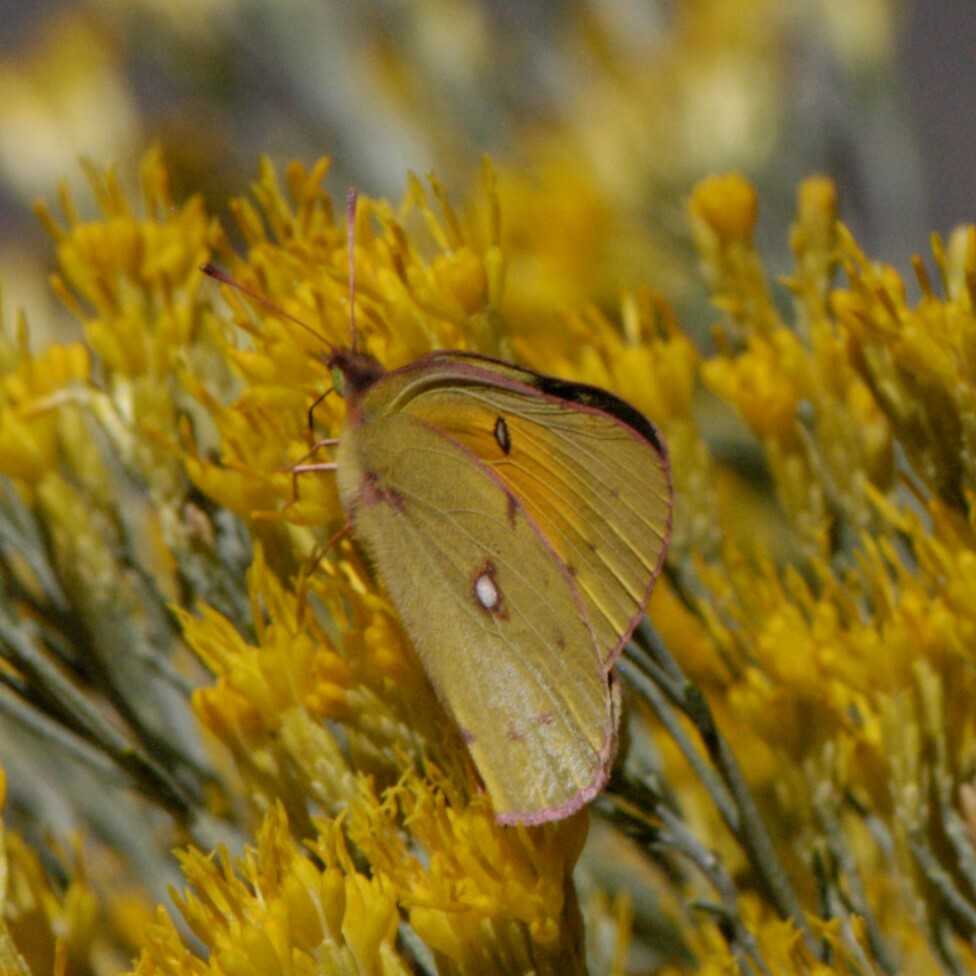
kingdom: Animalia
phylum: Arthropoda
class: Insecta
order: Lepidoptera
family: Pieridae
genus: Colias
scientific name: Colias eurytheme
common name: Alfalfa butterfly
